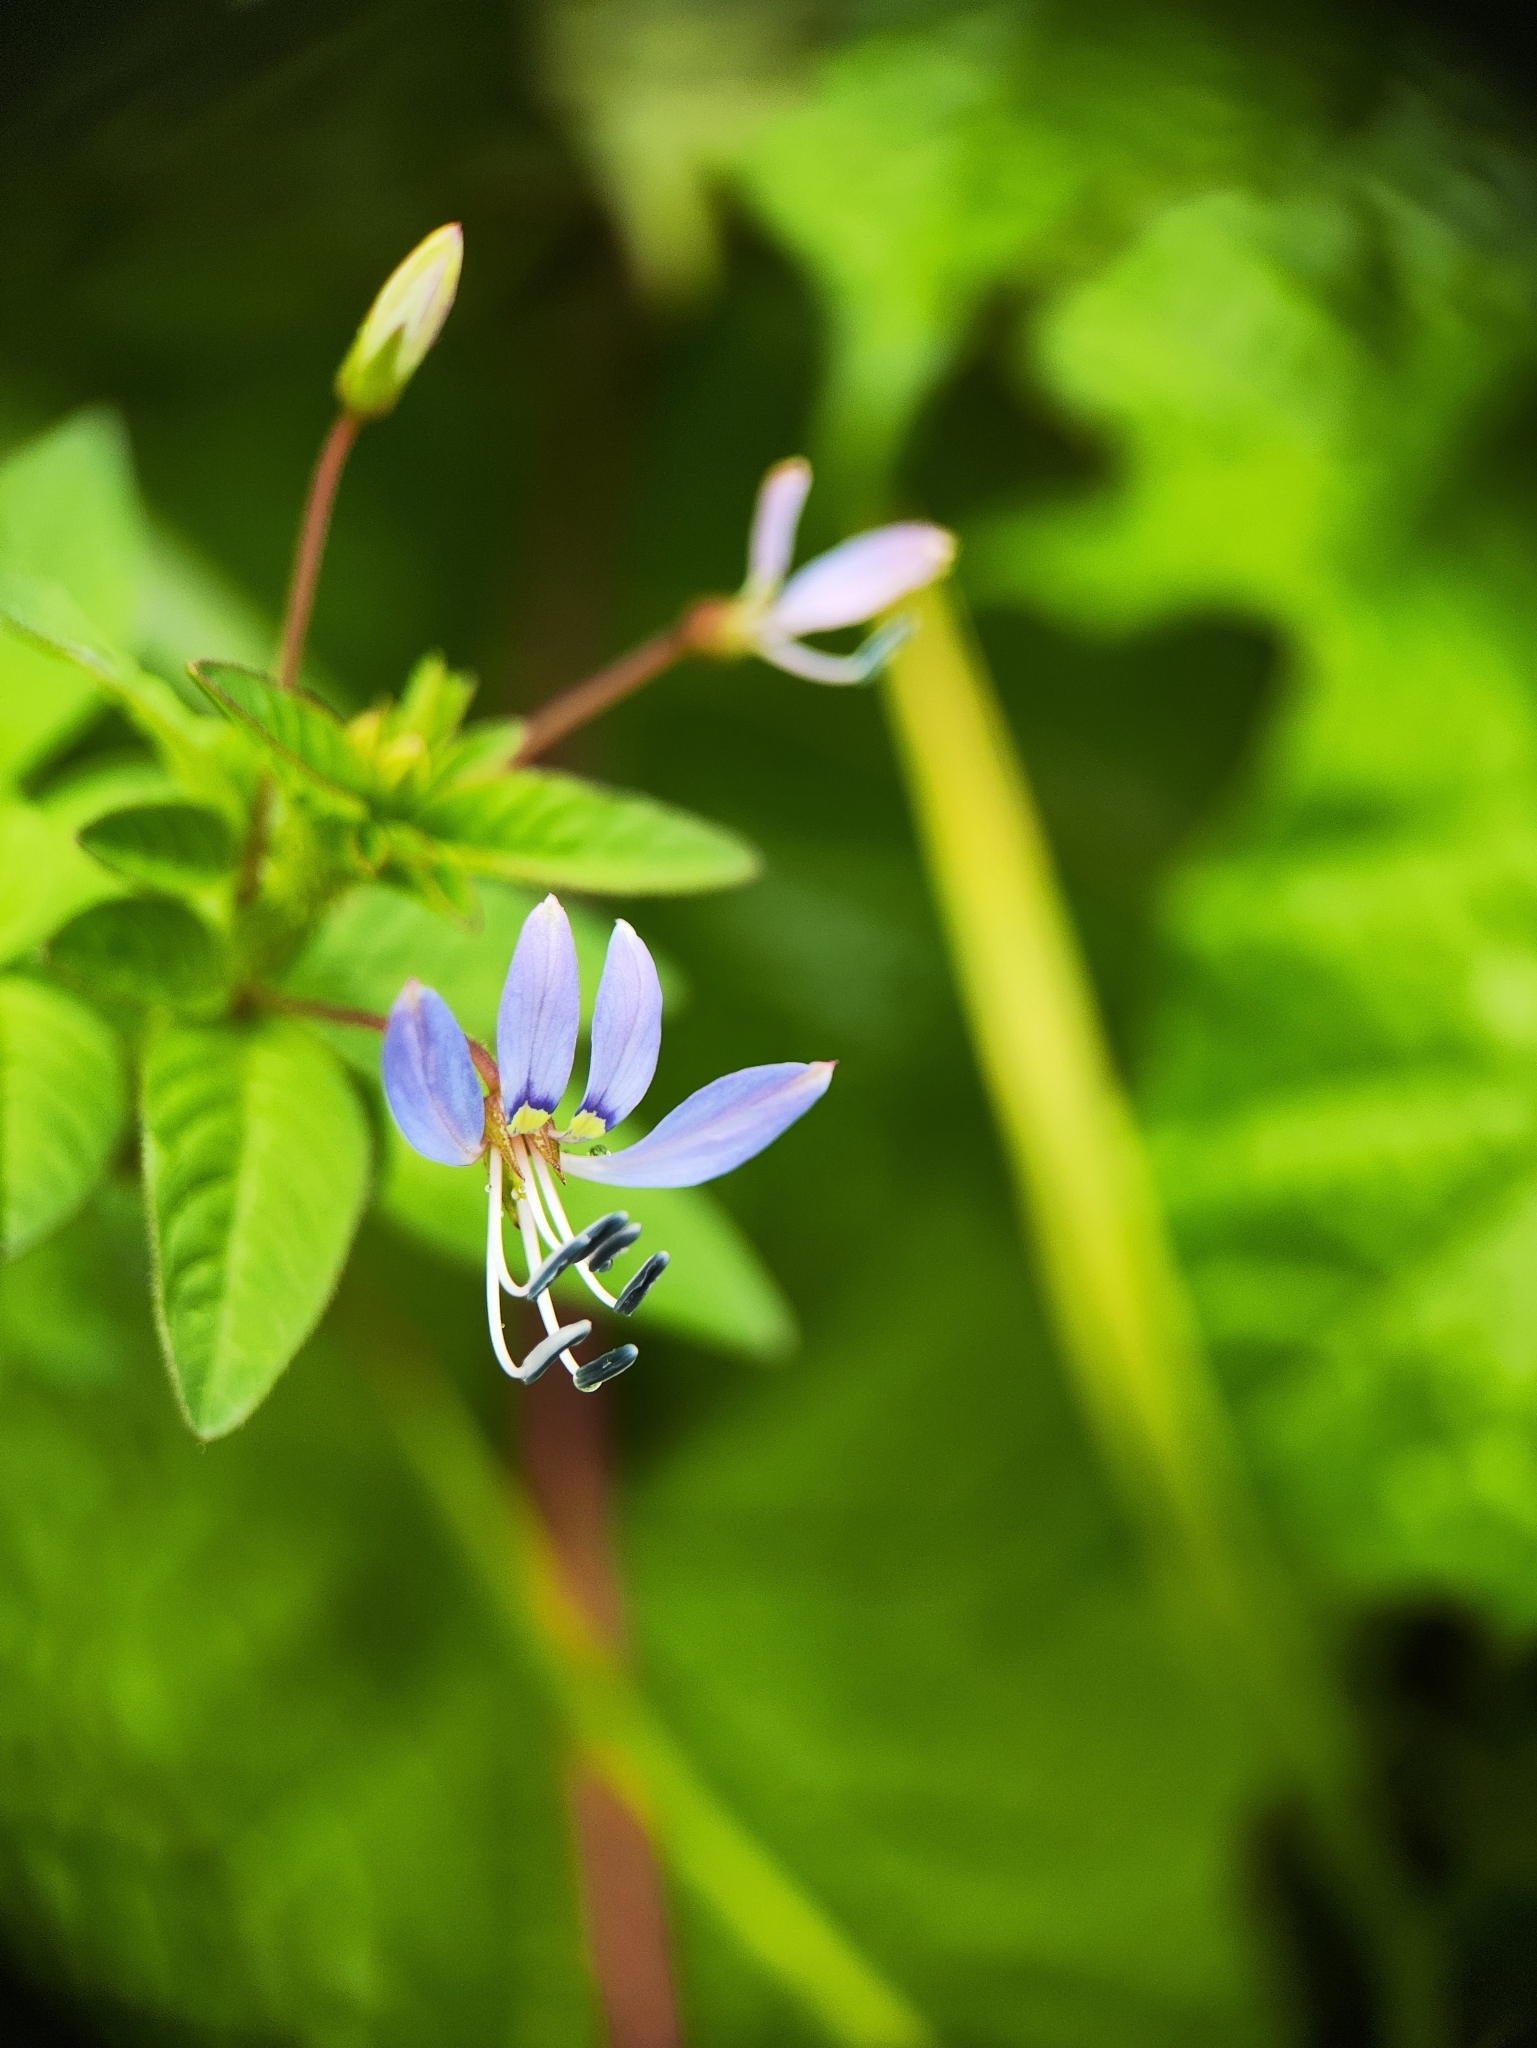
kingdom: Plantae
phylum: Tracheophyta
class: Magnoliopsida
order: Brassicales
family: Cleomaceae
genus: Sieruela
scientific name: Sieruela rutidosperma
